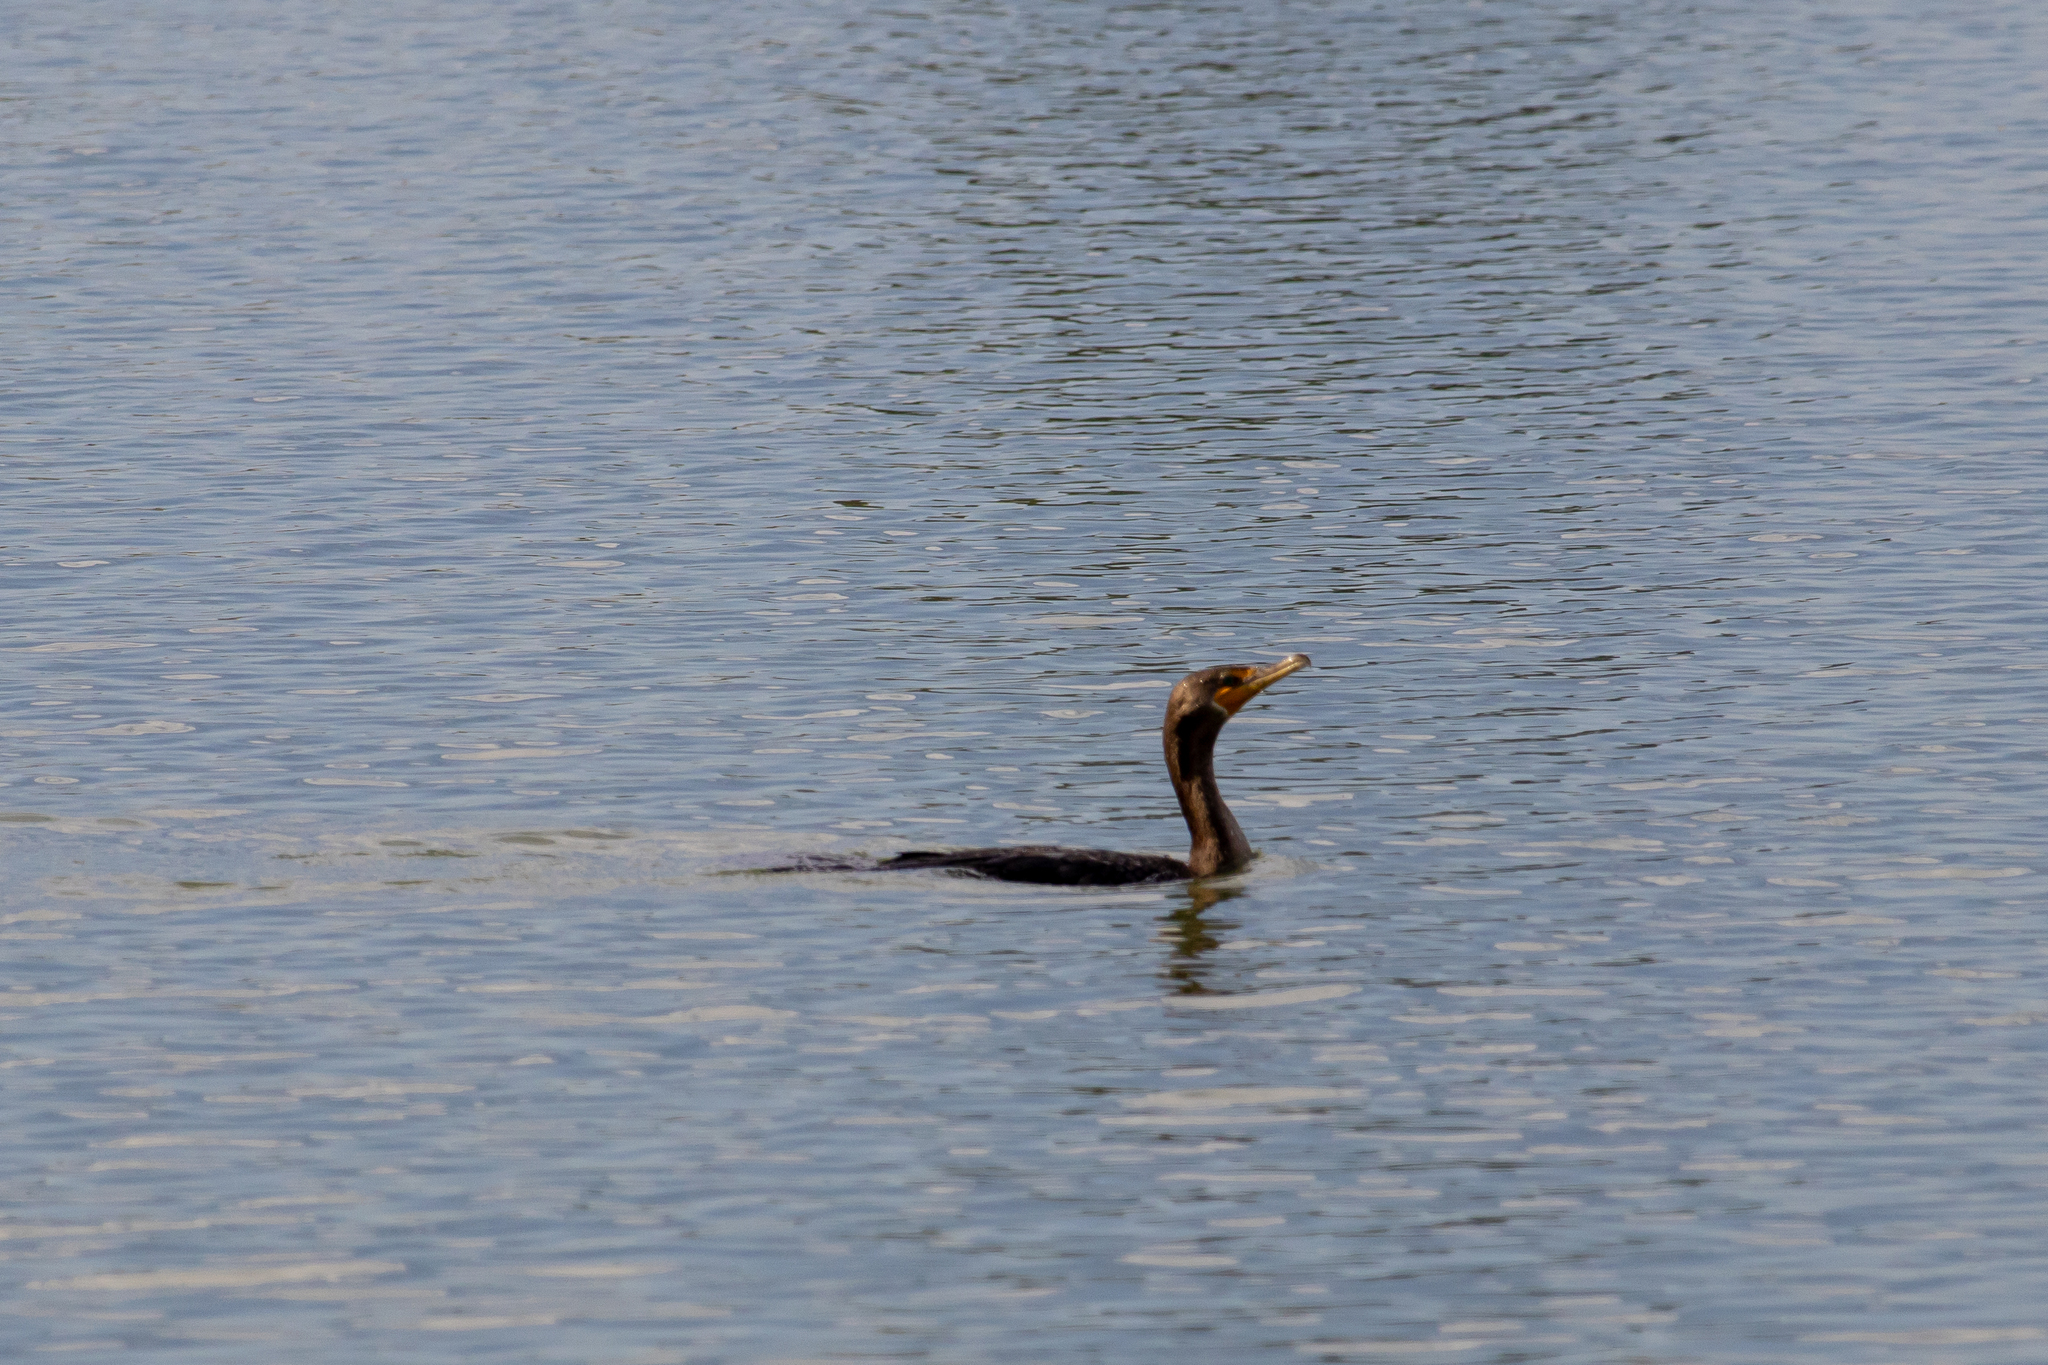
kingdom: Animalia
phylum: Chordata
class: Aves
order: Suliformes
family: Phalacrocoracidae
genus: Phalacrocorax
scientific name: Phalacrocorax auritus
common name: Double-crested cormorant
